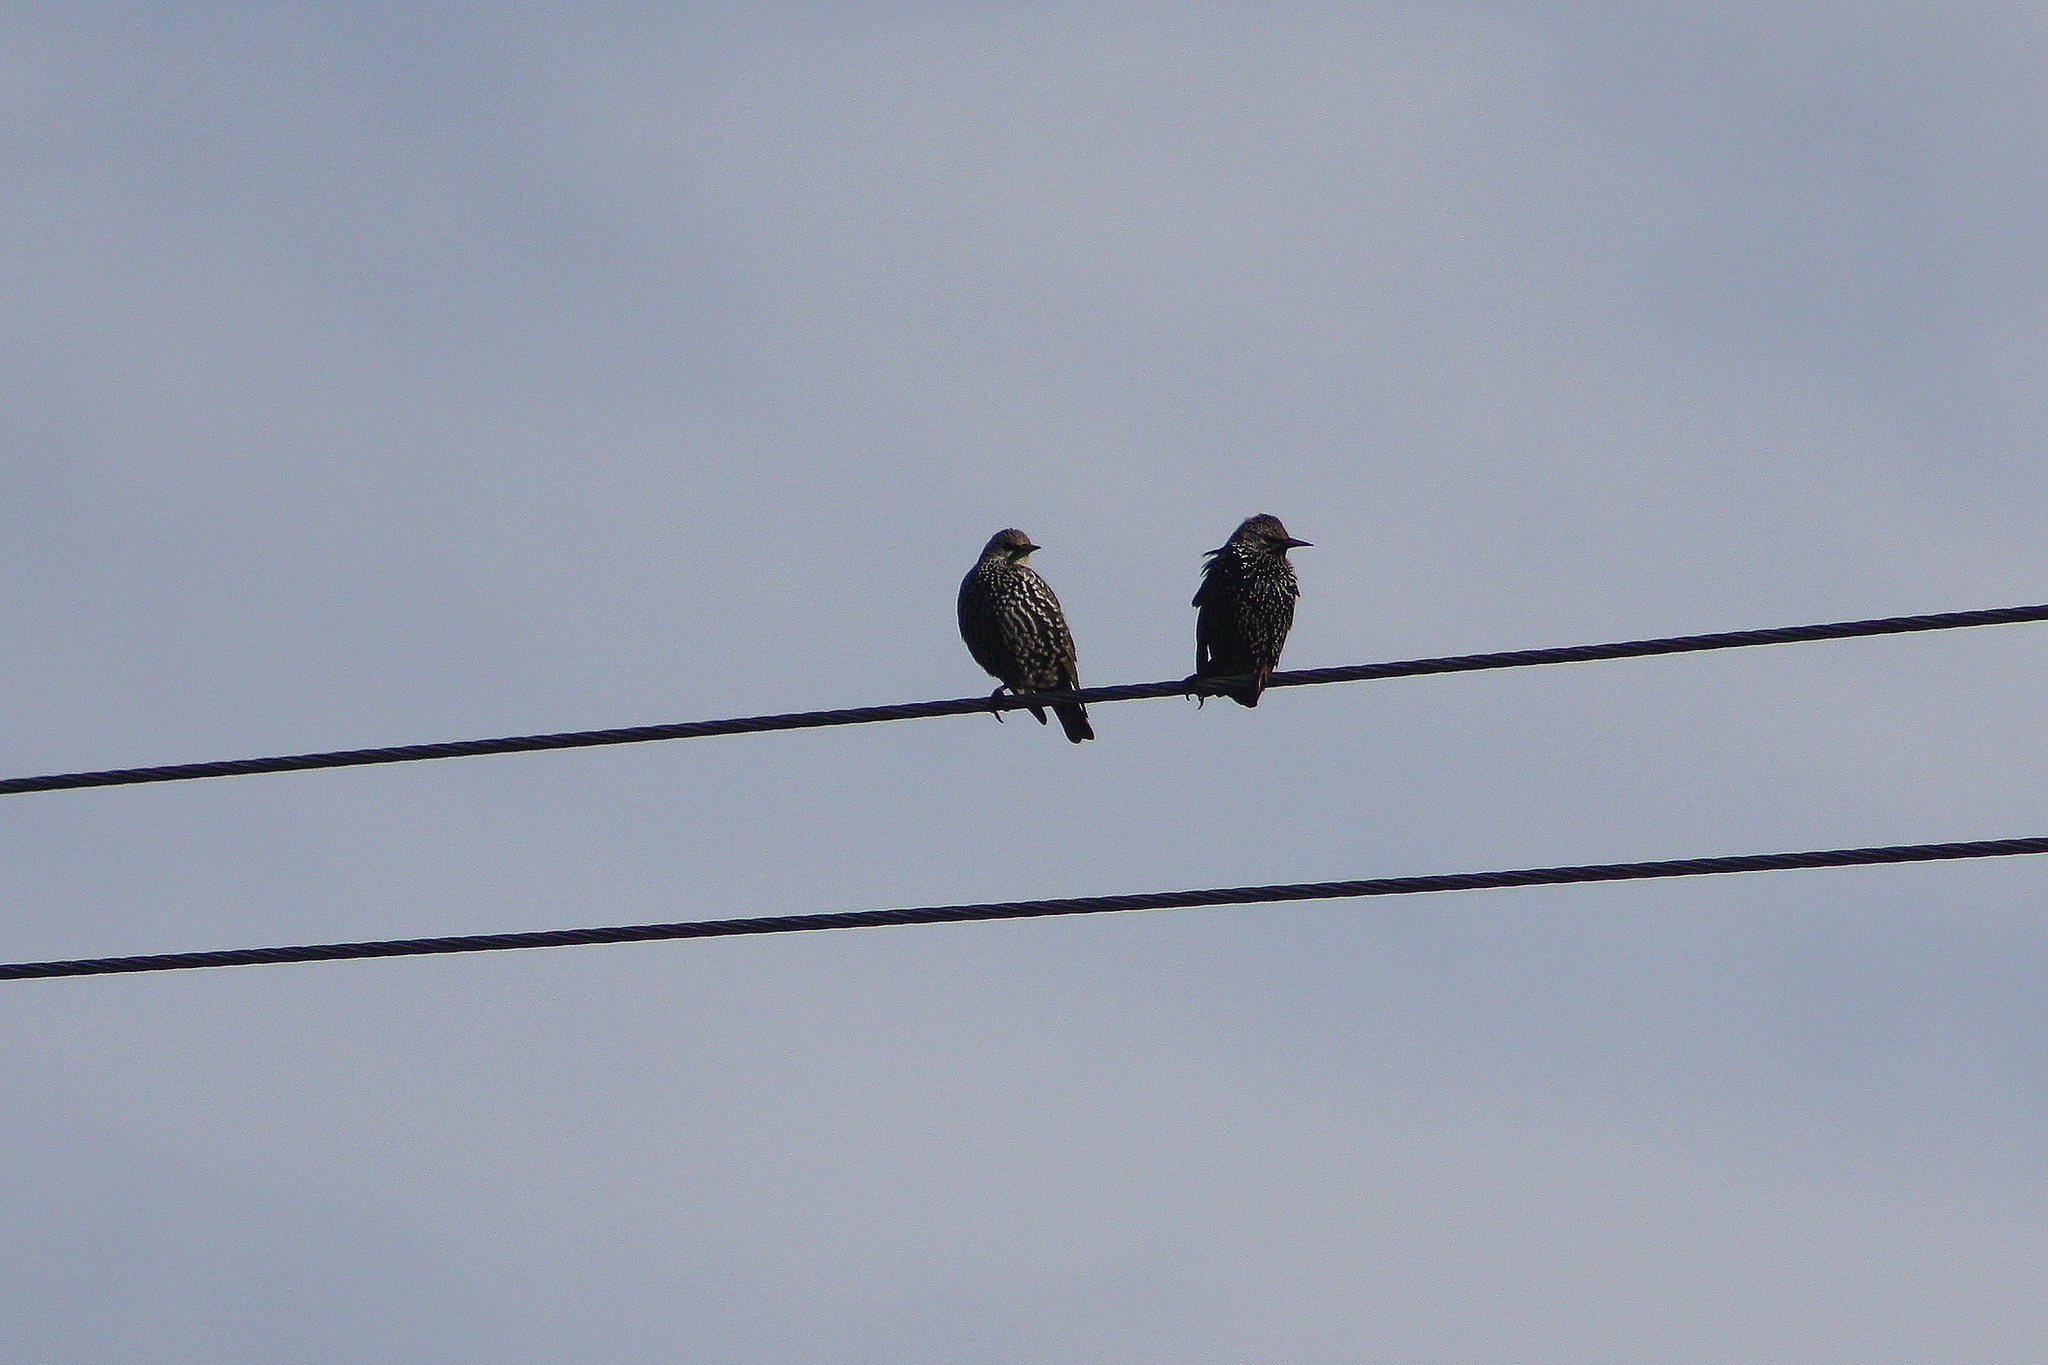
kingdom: Animalia
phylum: Chordata
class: Aves
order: Passeriformes
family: Sturnidae
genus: Sturnus
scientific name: Sturnus vulgaris
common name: Common starling
